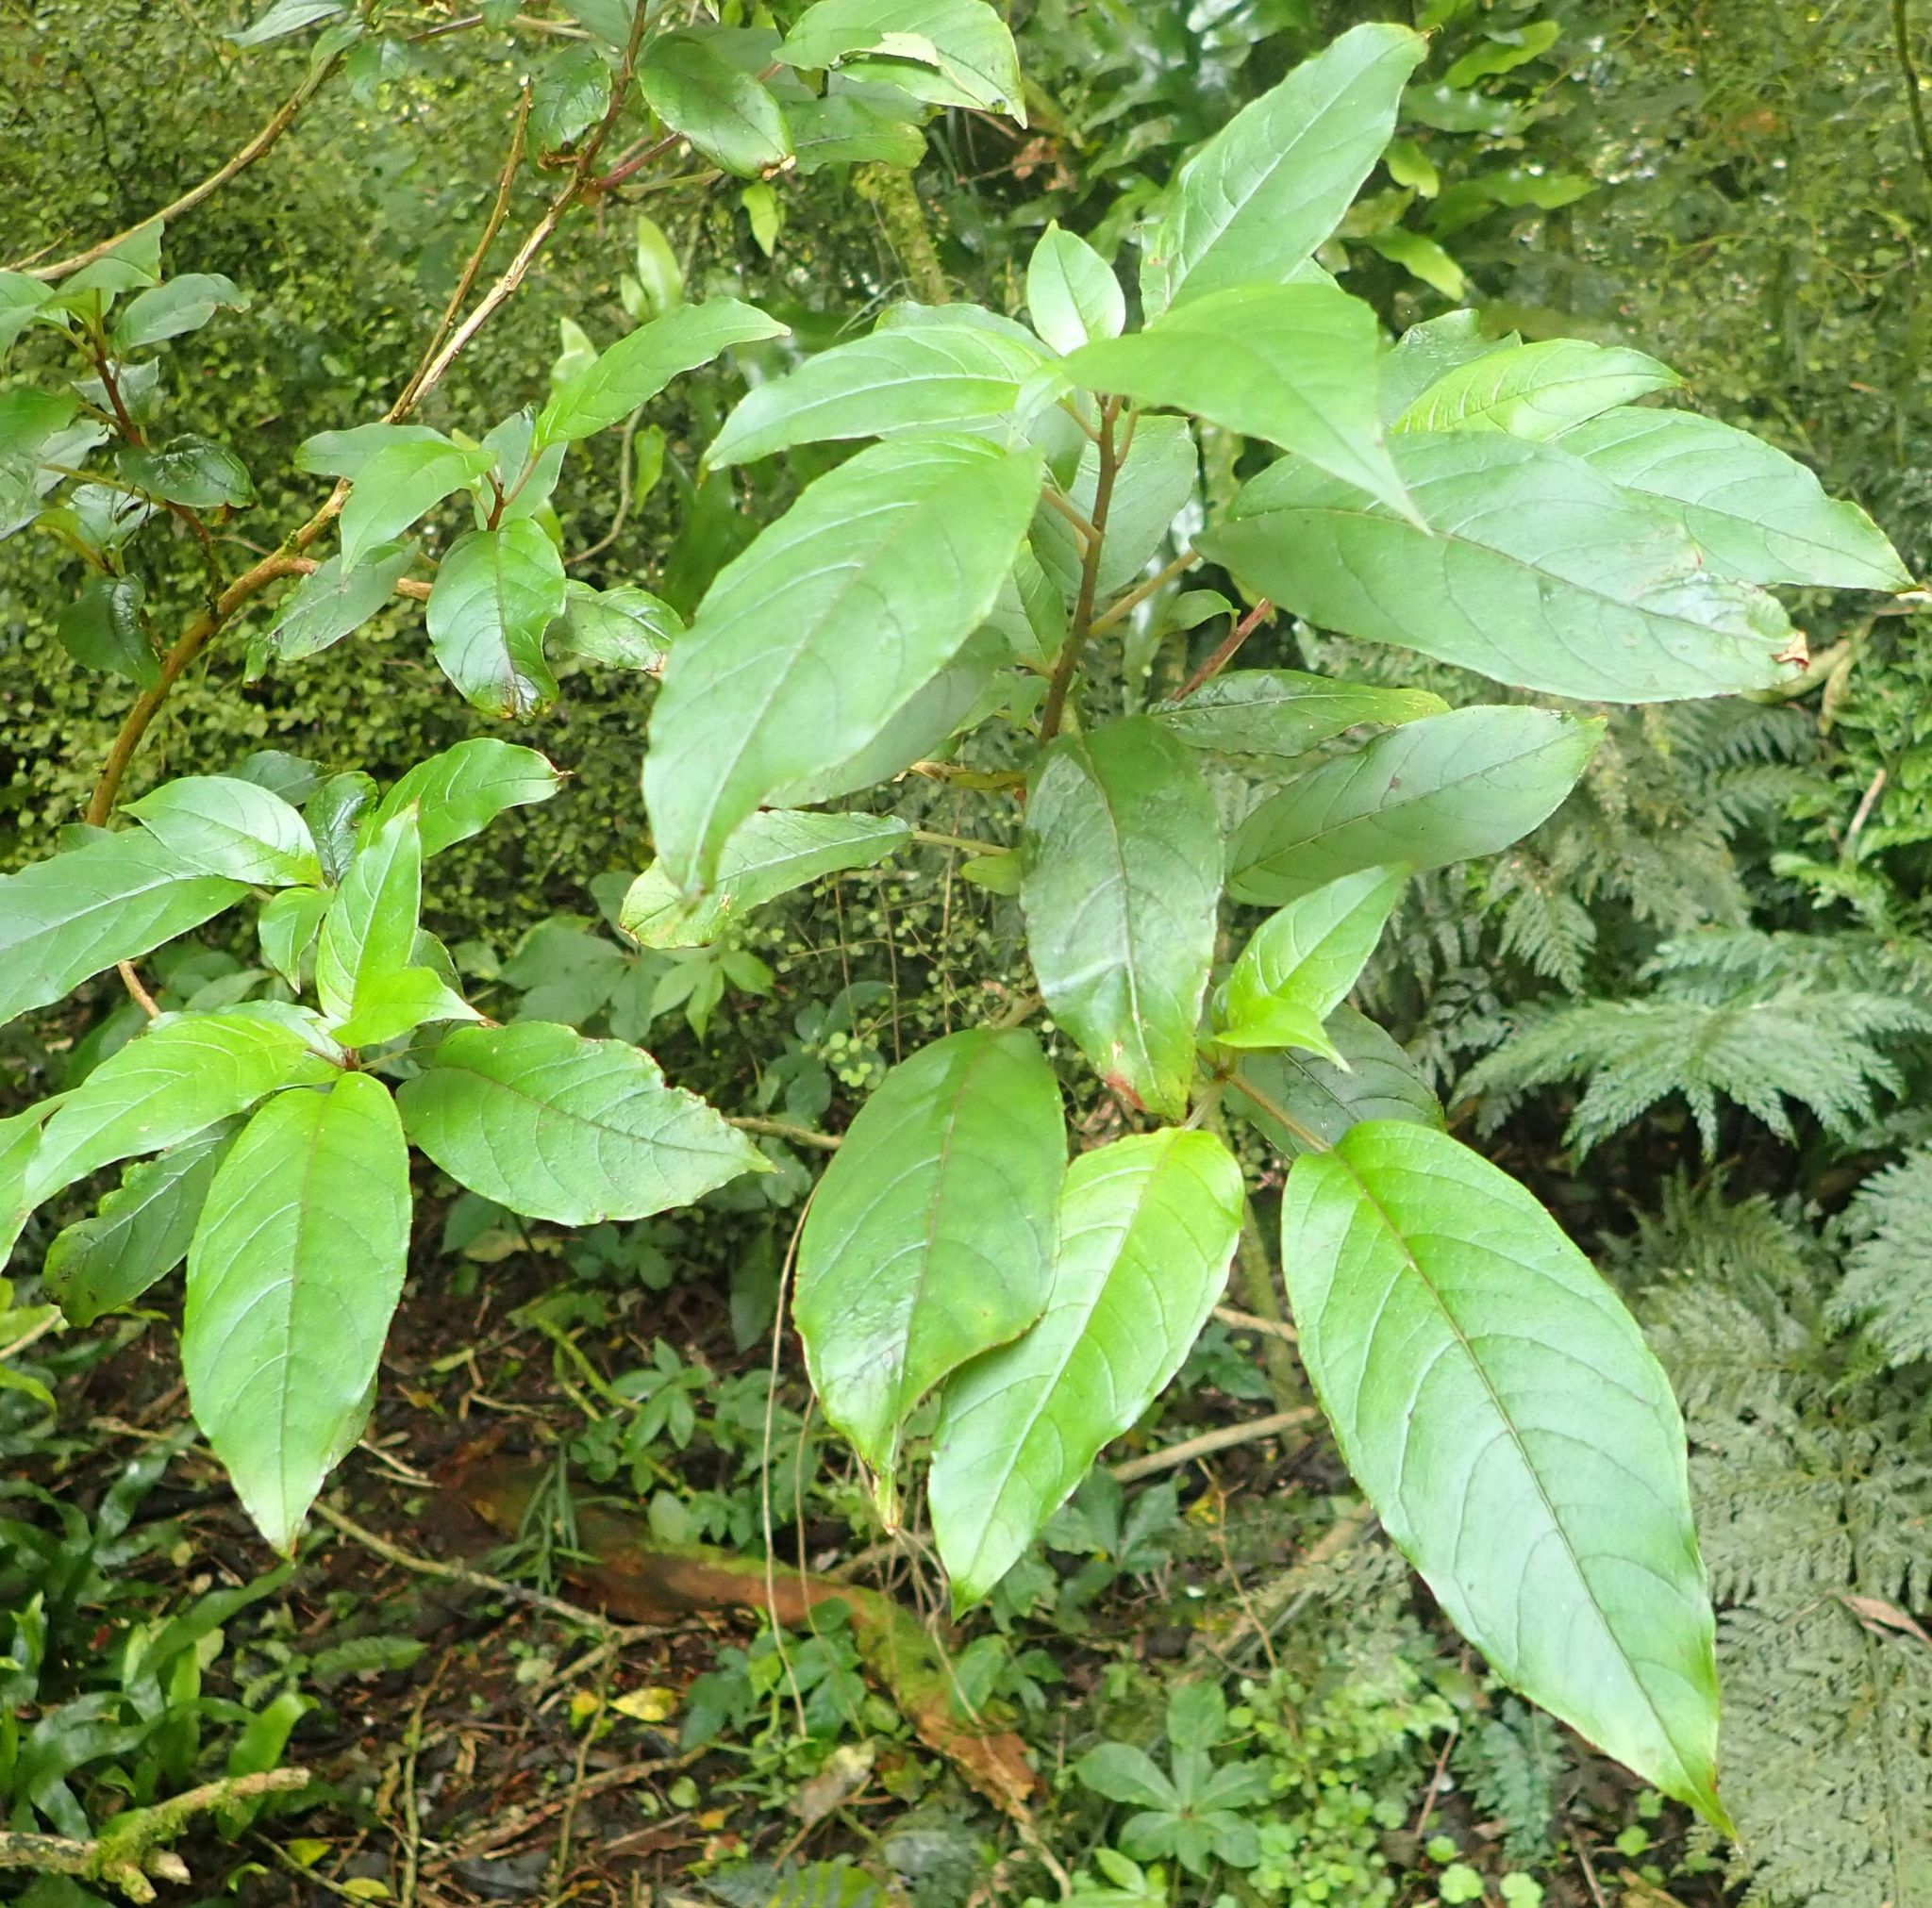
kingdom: Plantae
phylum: Tracheophyta
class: Magnoliopsida
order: Myrtales
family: Onagraceae
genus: Fuchsia
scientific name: Fuchsia excorticata
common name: Tree fuchsia
